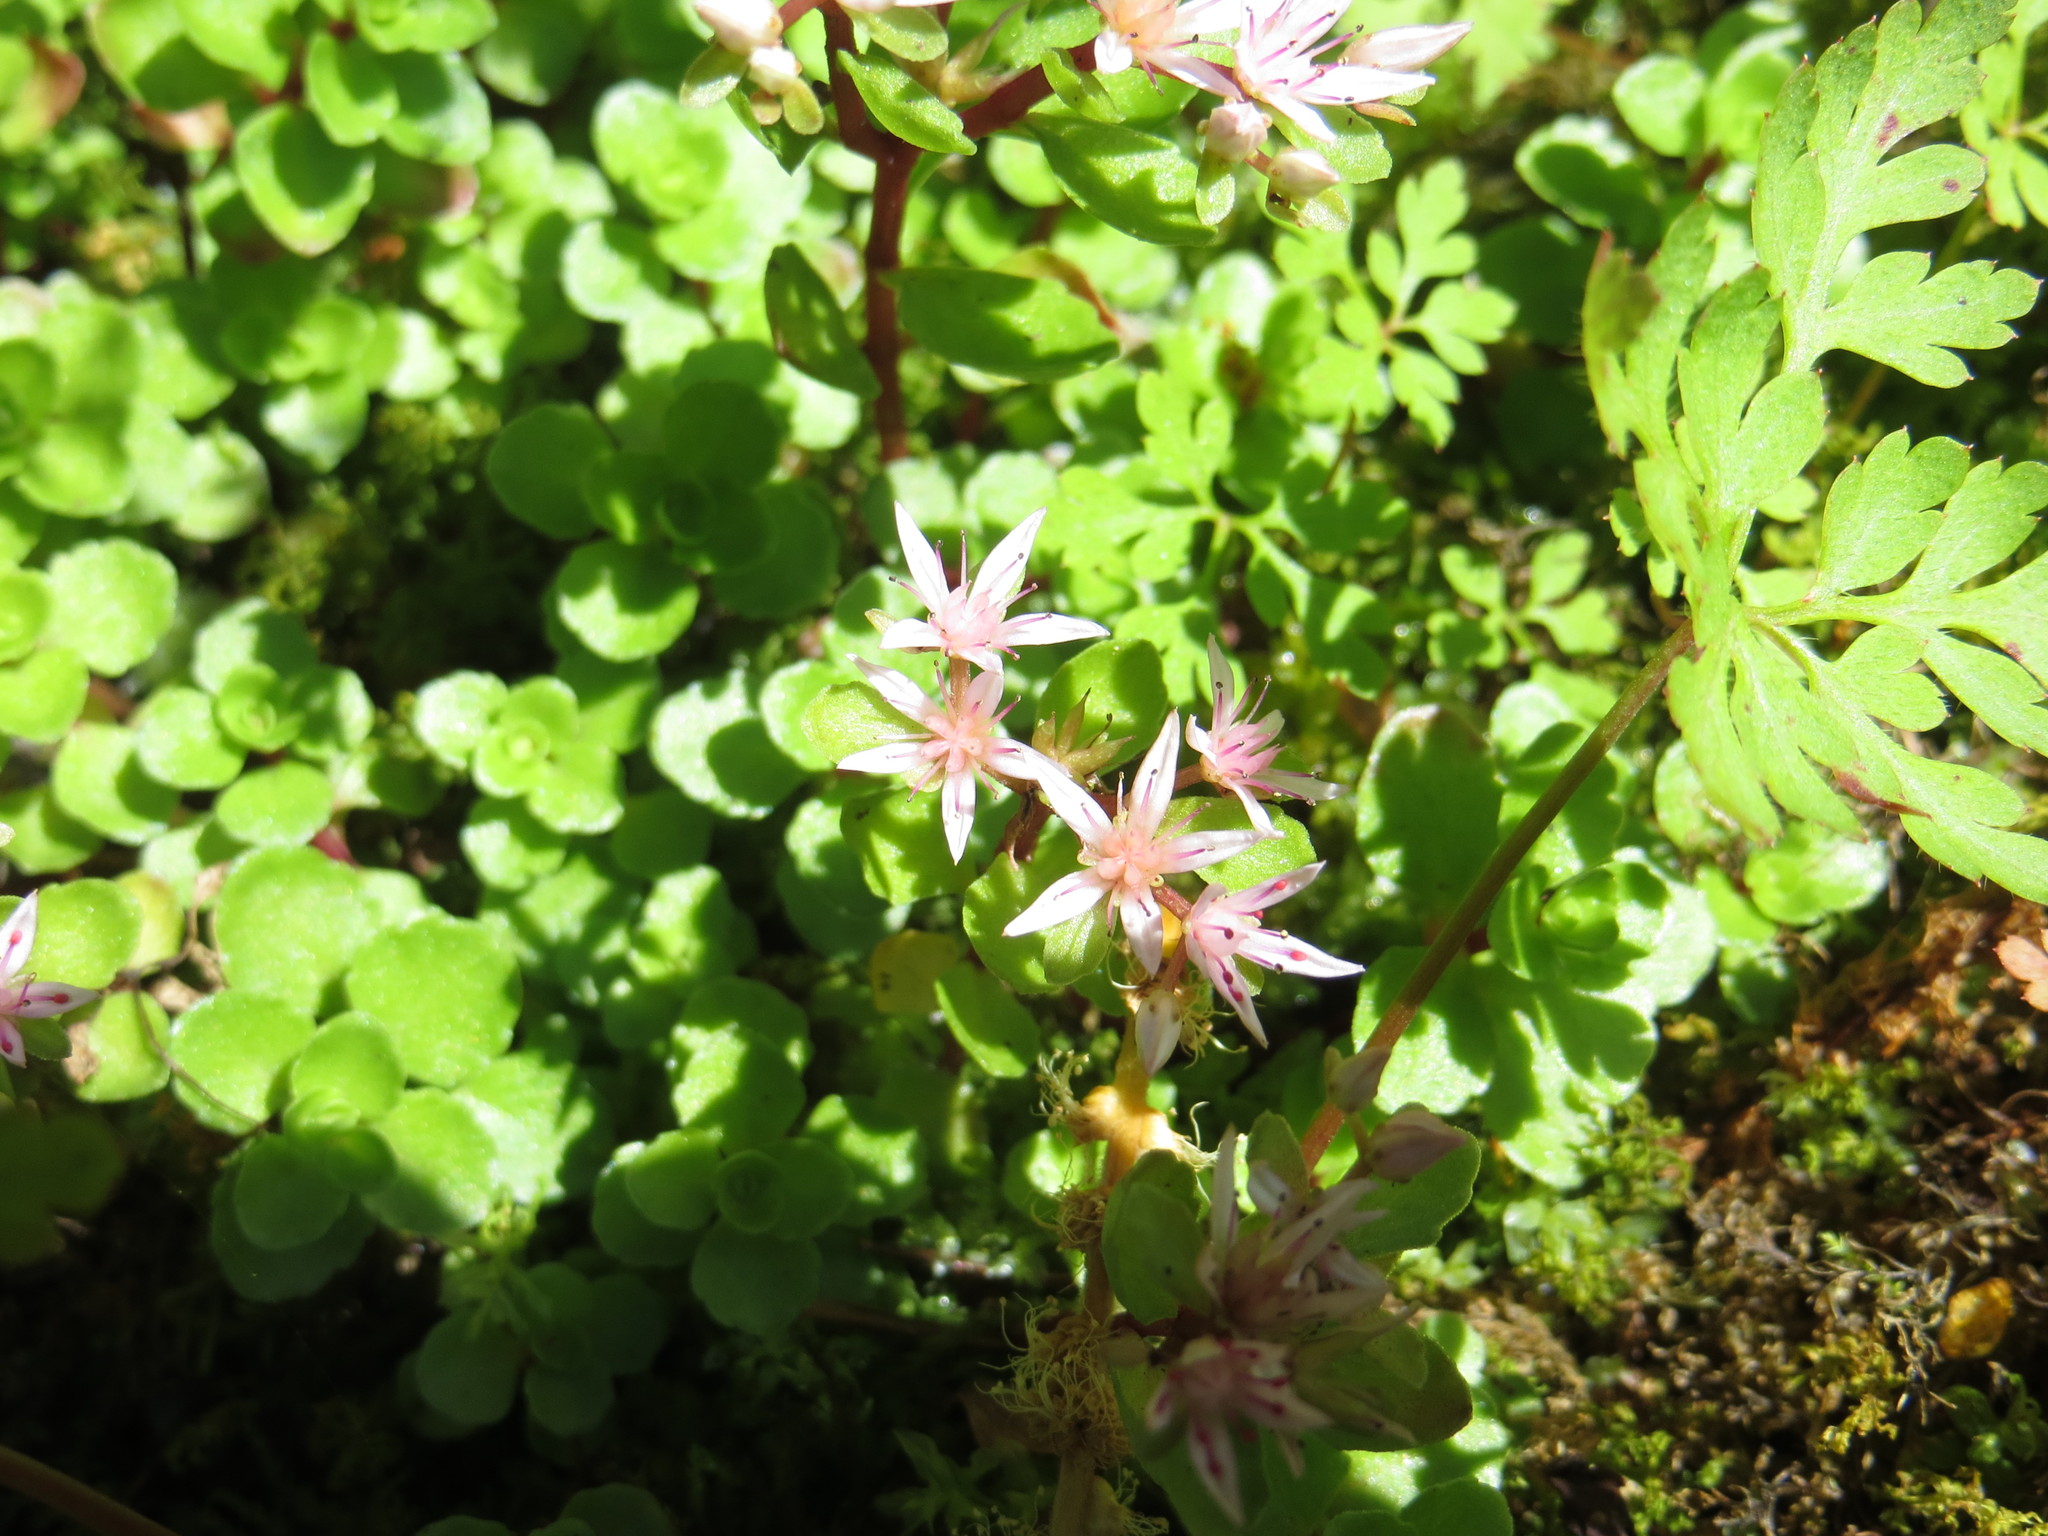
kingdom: Plantae
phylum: Tracheophyta
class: Magnoliopsida
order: Saxifragales
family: Crassulaceae
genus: Phedimus
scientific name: Phedimus spurius
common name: Caucasian stonecrop
